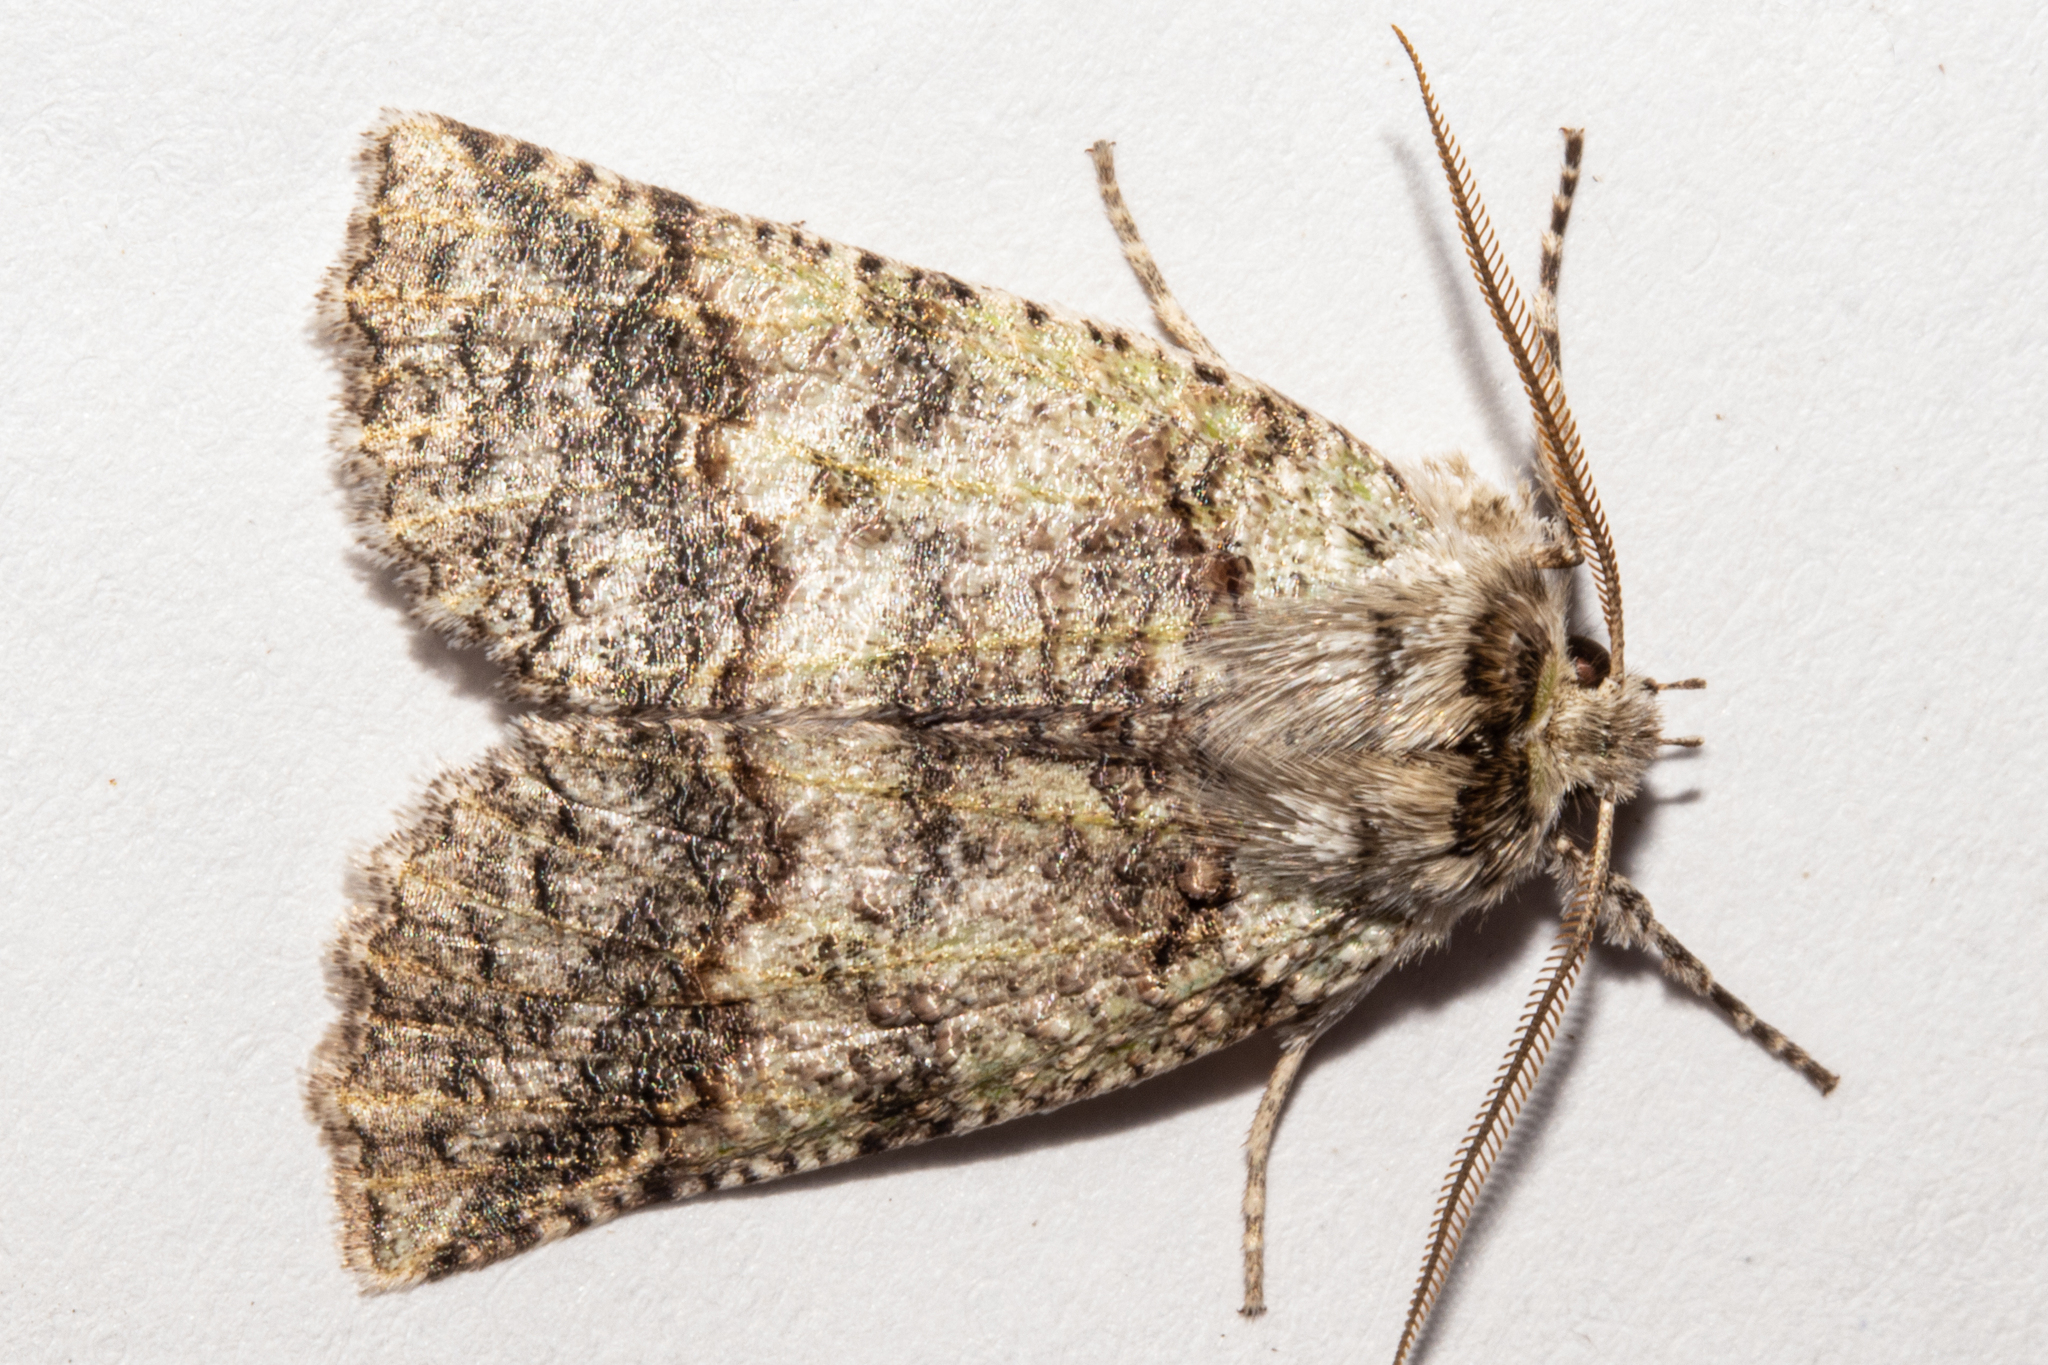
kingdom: Animalia
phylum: Arthropoda
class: Insecta
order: Lepidoptera
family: Geometridae
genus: Declana
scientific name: Declana floccosa
